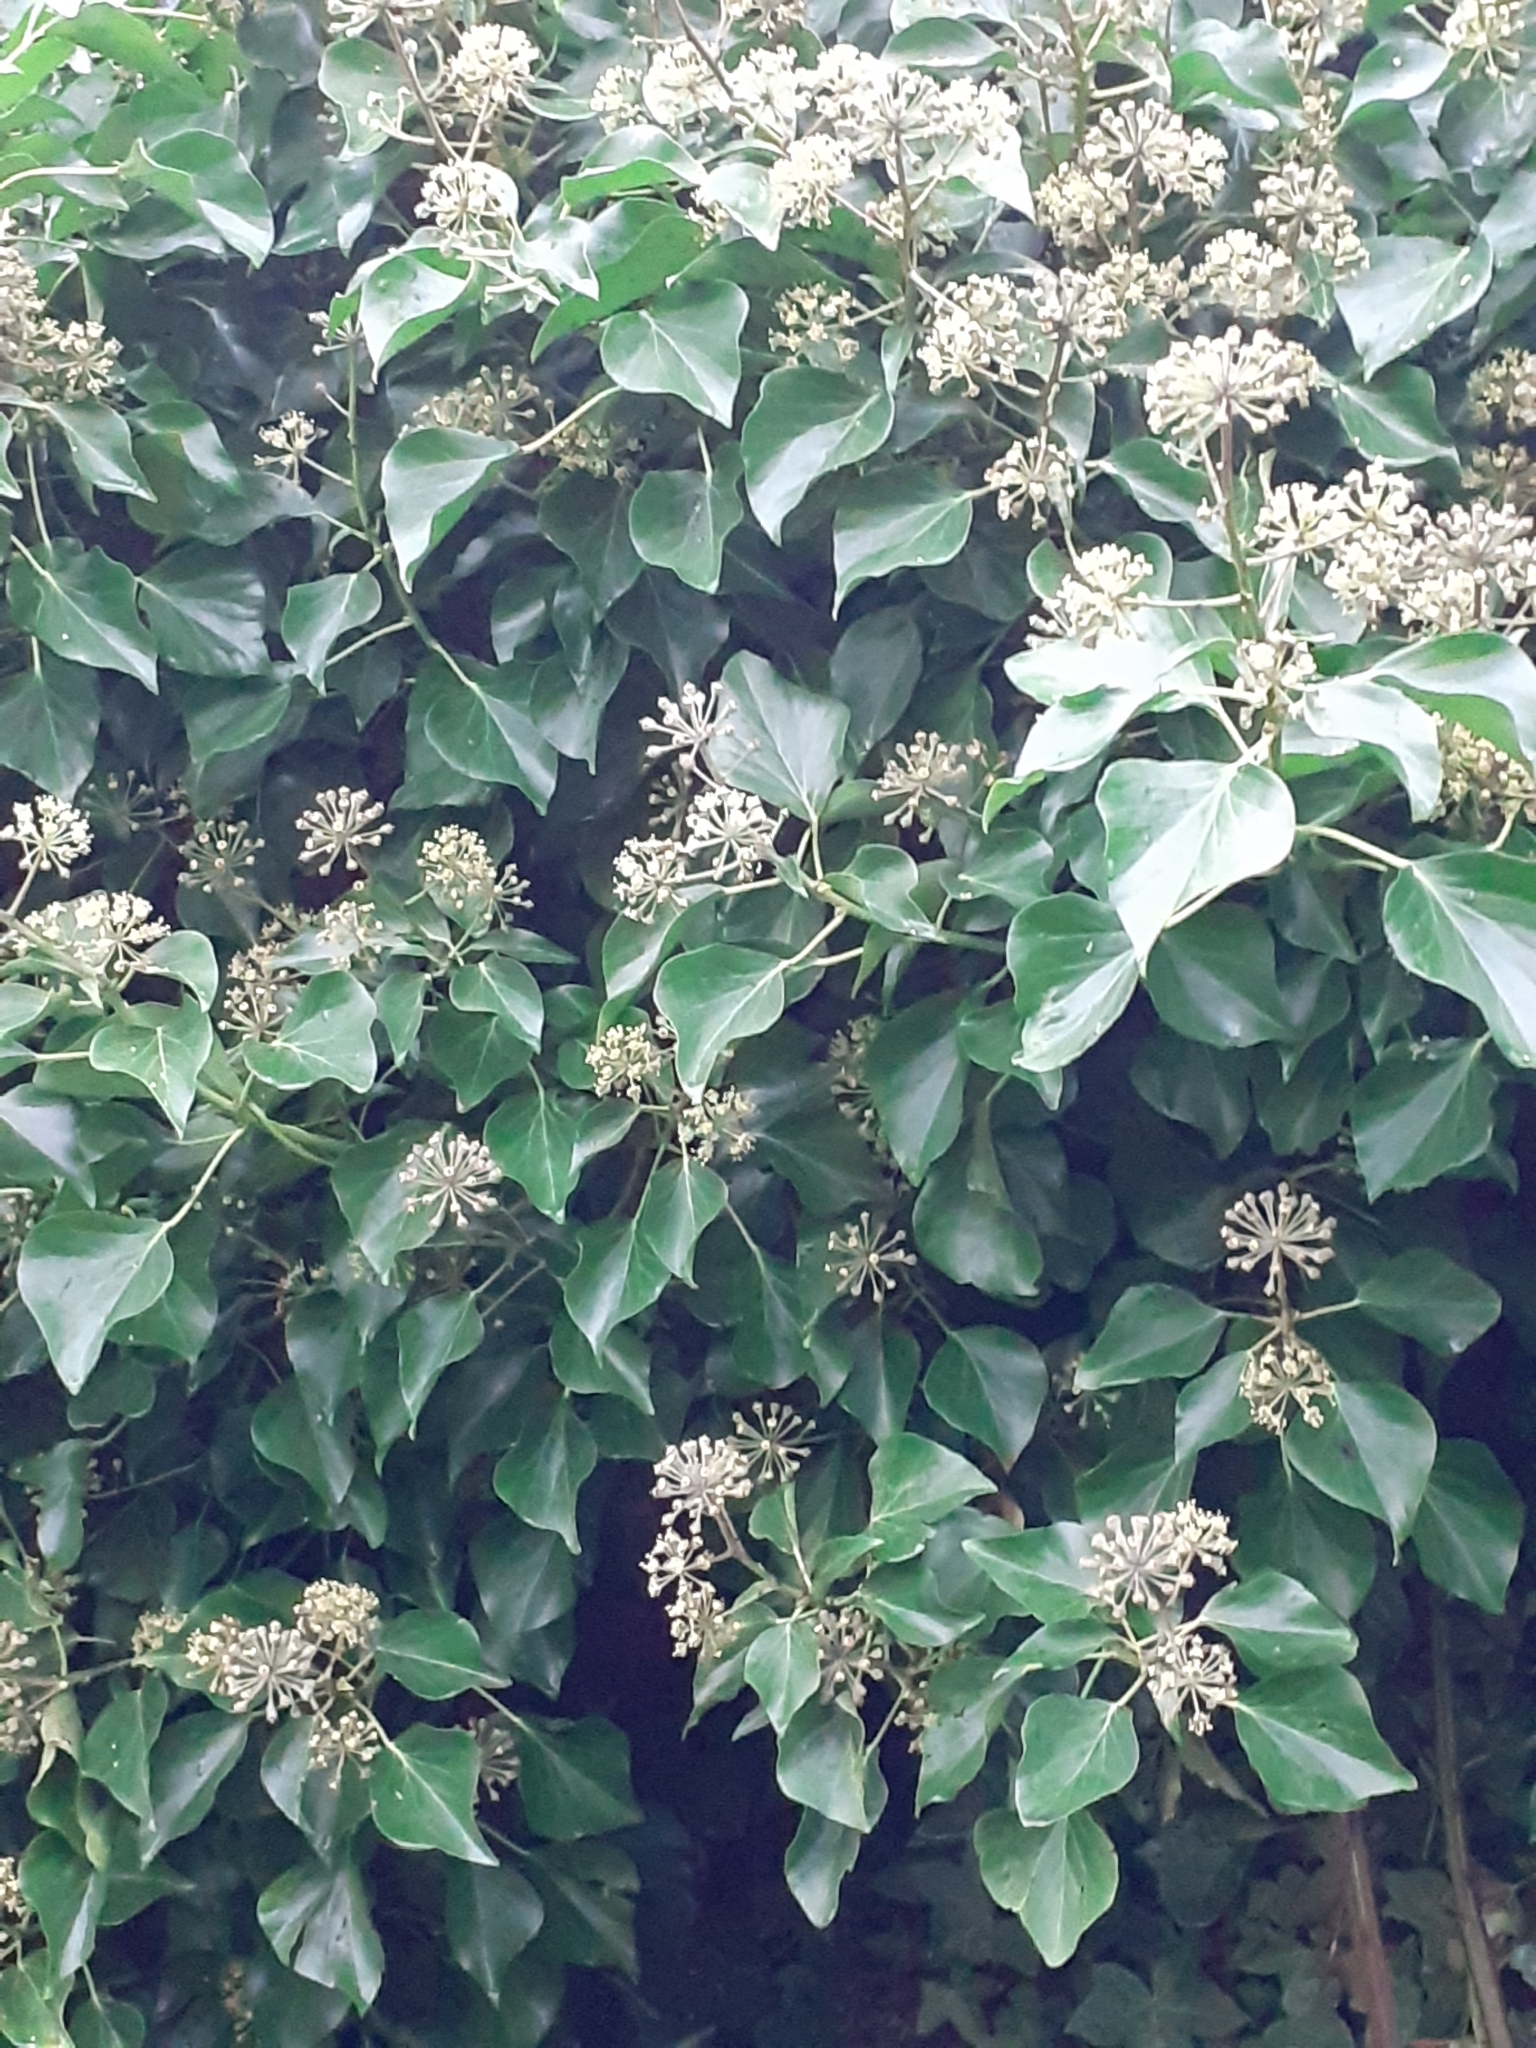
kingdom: Plantae
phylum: Tracheophyta
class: Magnoliopsida
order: Apiales
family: Araliaceae
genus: Hedera
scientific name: Hedera helix
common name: Ivy
